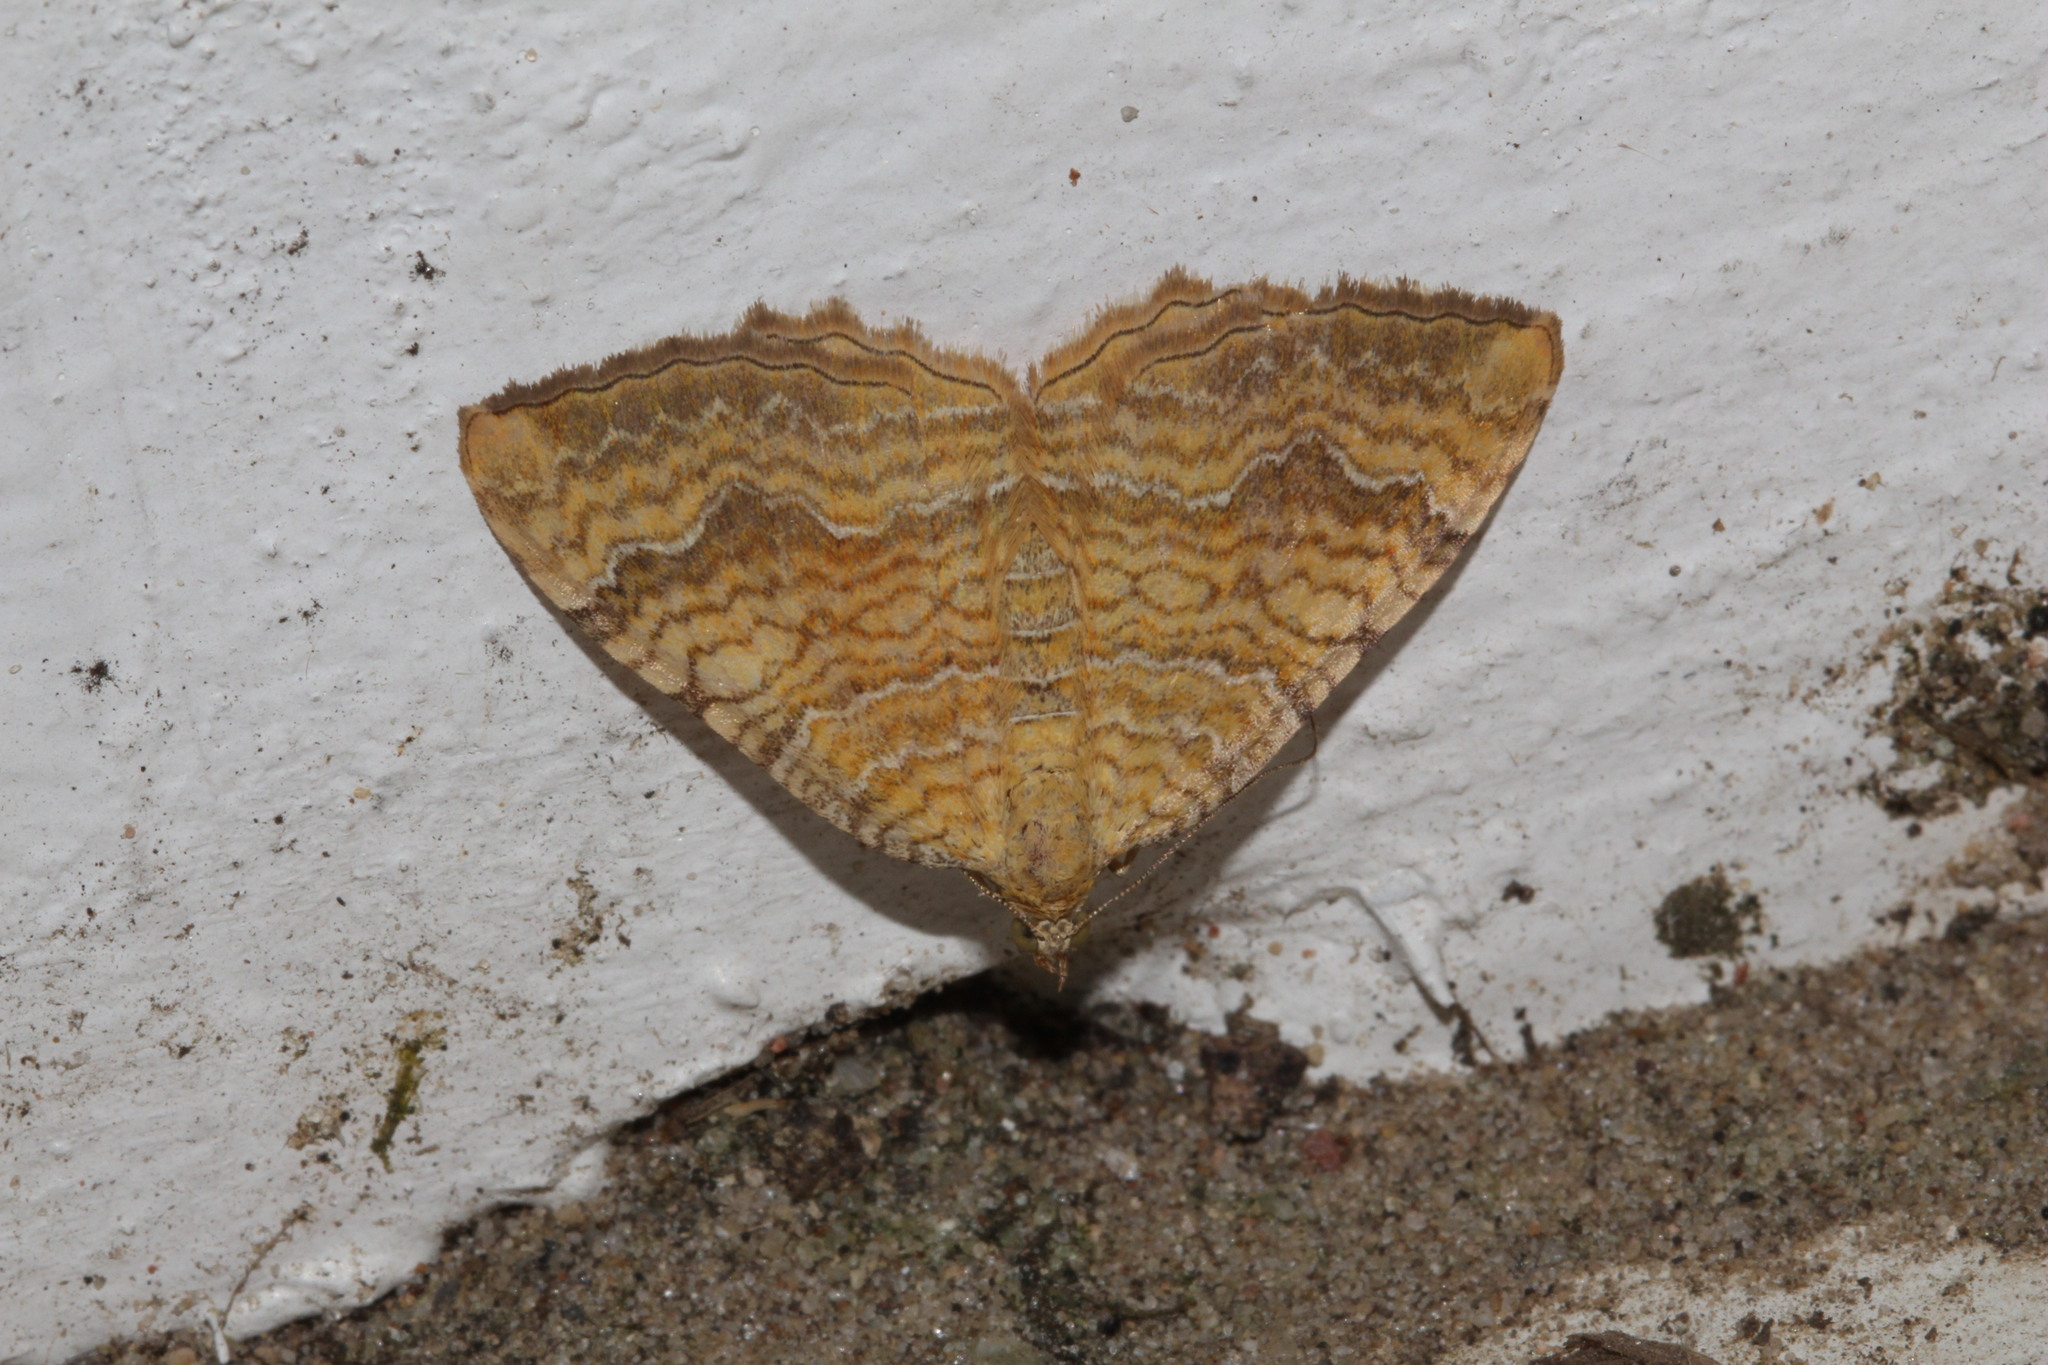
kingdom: Animalia
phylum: Arthropoda
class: Insecta
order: Lepidoptera
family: Geometridae
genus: Camptogramma
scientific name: Camptogramma bilineata
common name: Yellow shell
